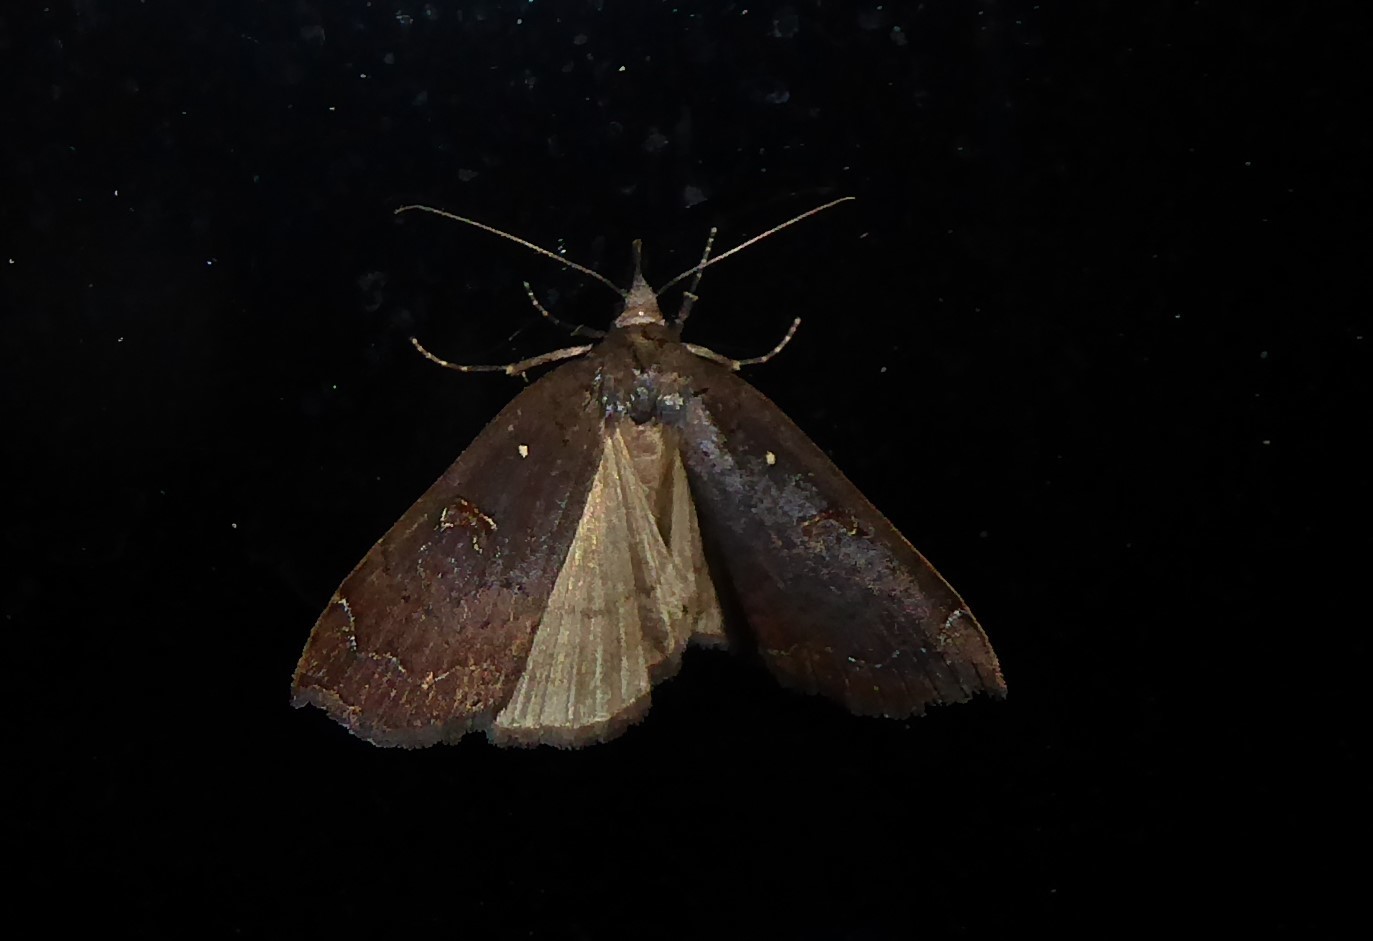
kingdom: Animalia
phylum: Arthropoda
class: Insecta
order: Lepidoptera
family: Erebidae
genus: Rhapsa
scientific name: Rhapsa scotosialis
